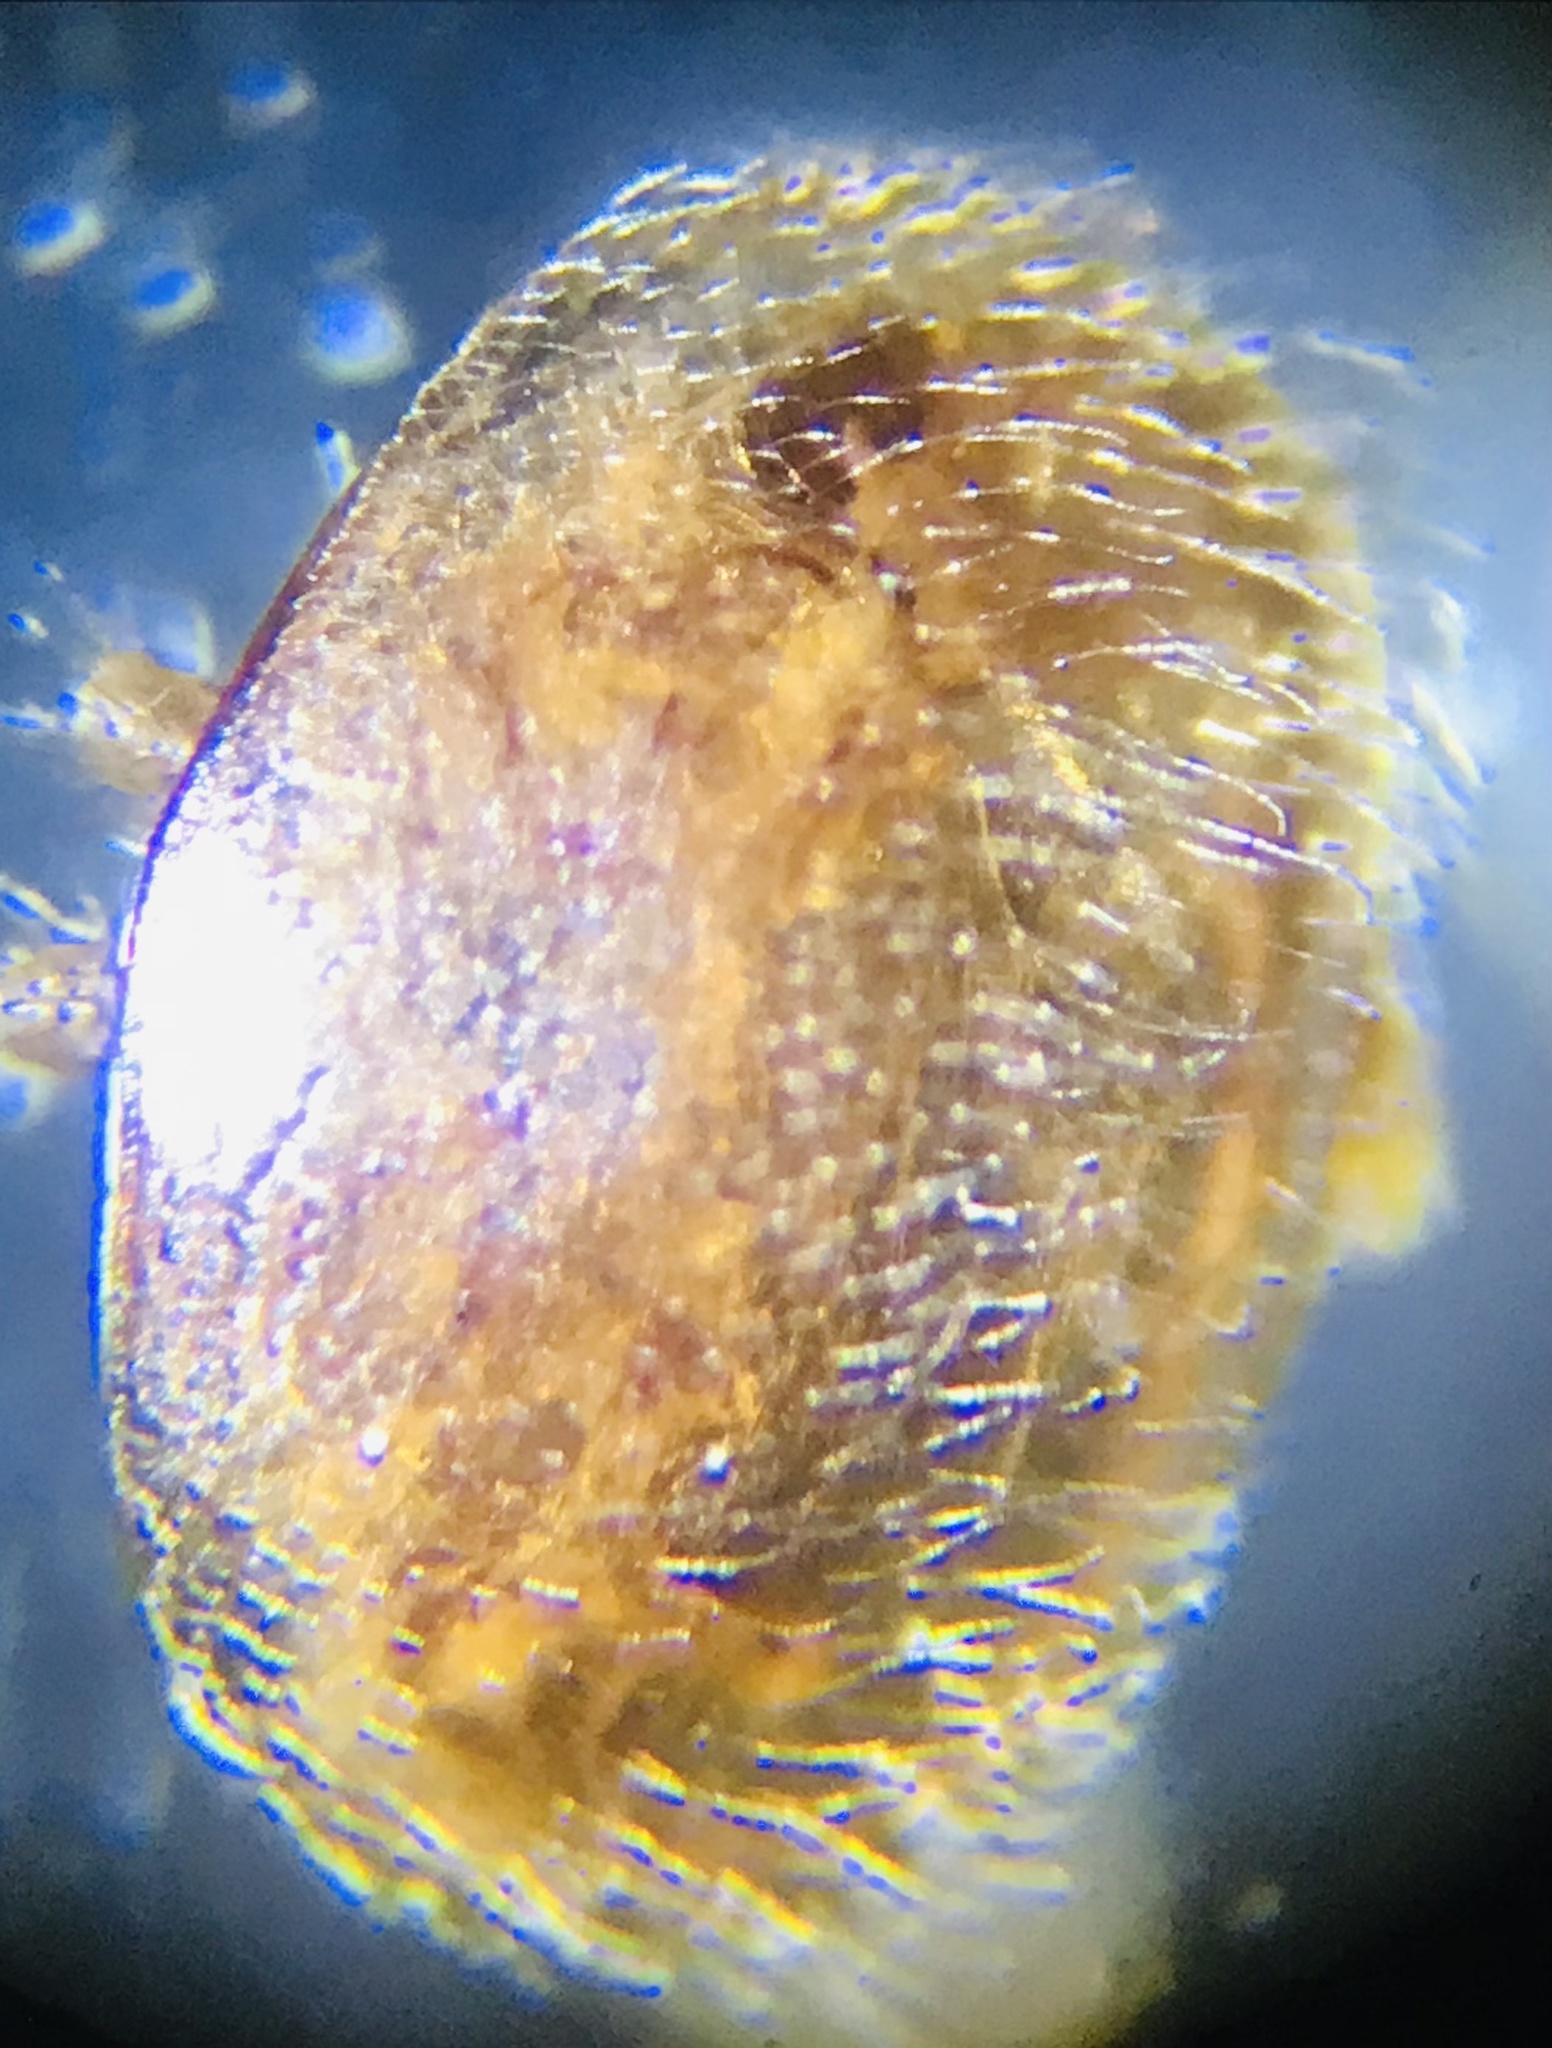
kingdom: Animalia
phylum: Arthropoda
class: Arachnida
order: Mesostigmata
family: Varroidae
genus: Varroa
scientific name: Varroa destructor
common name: Honey bee mite
